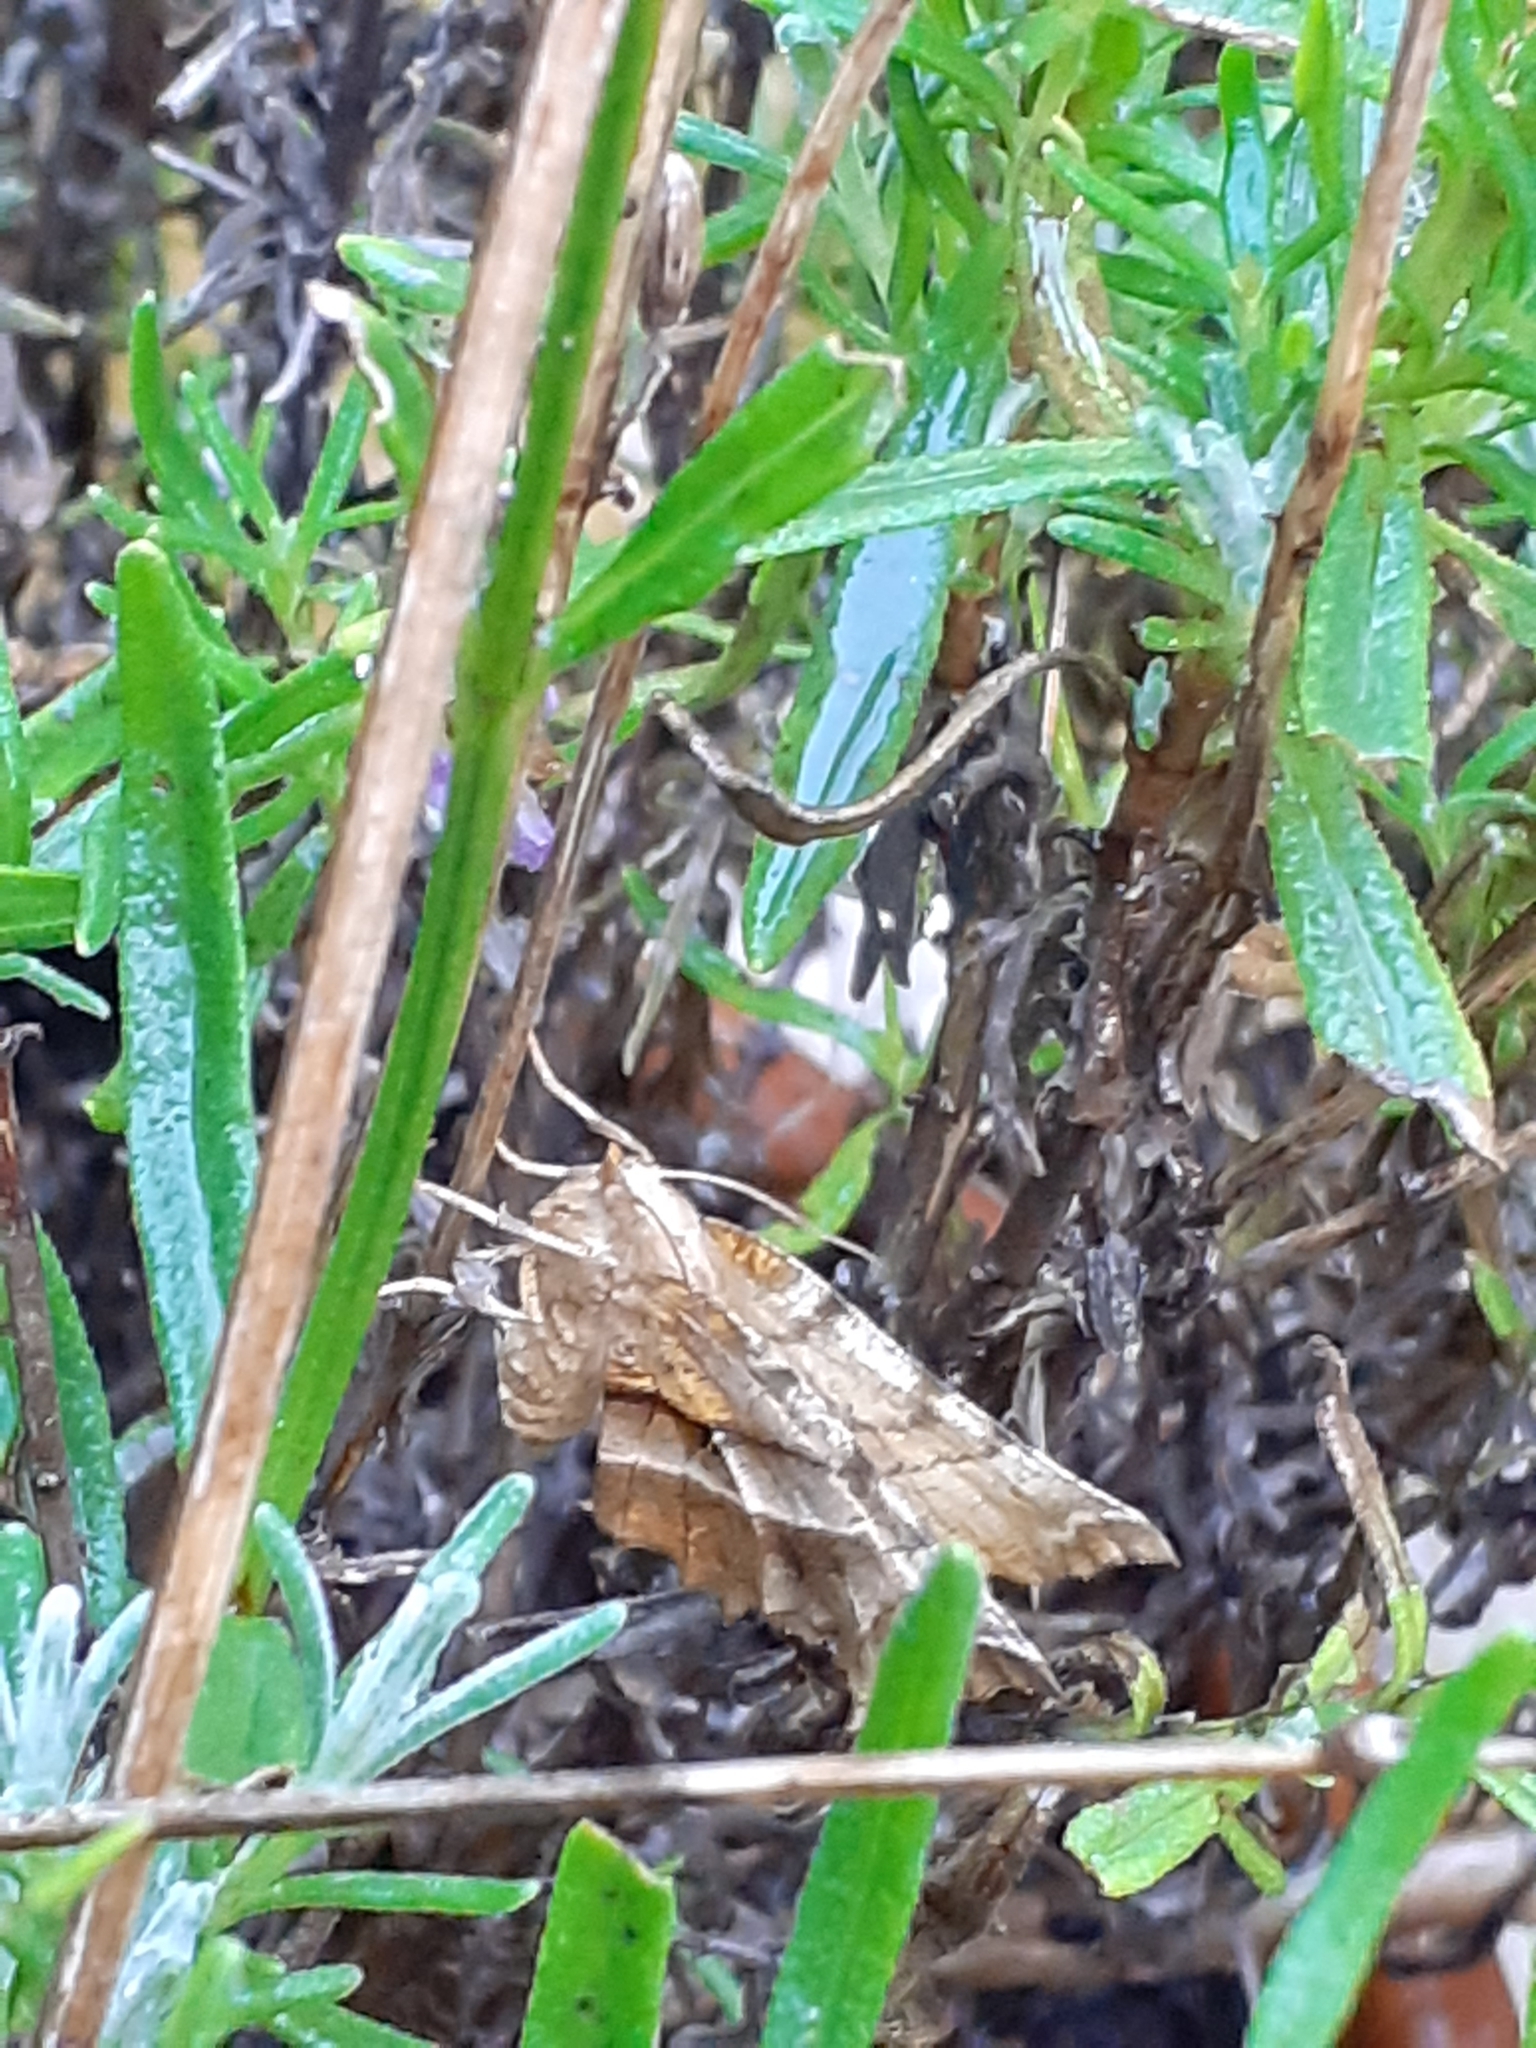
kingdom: Animalia
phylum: Arthropoda
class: Insecta
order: Lepidoptera
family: Geometridae
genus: Selenia
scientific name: Selenia dentaria
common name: Early thorn
